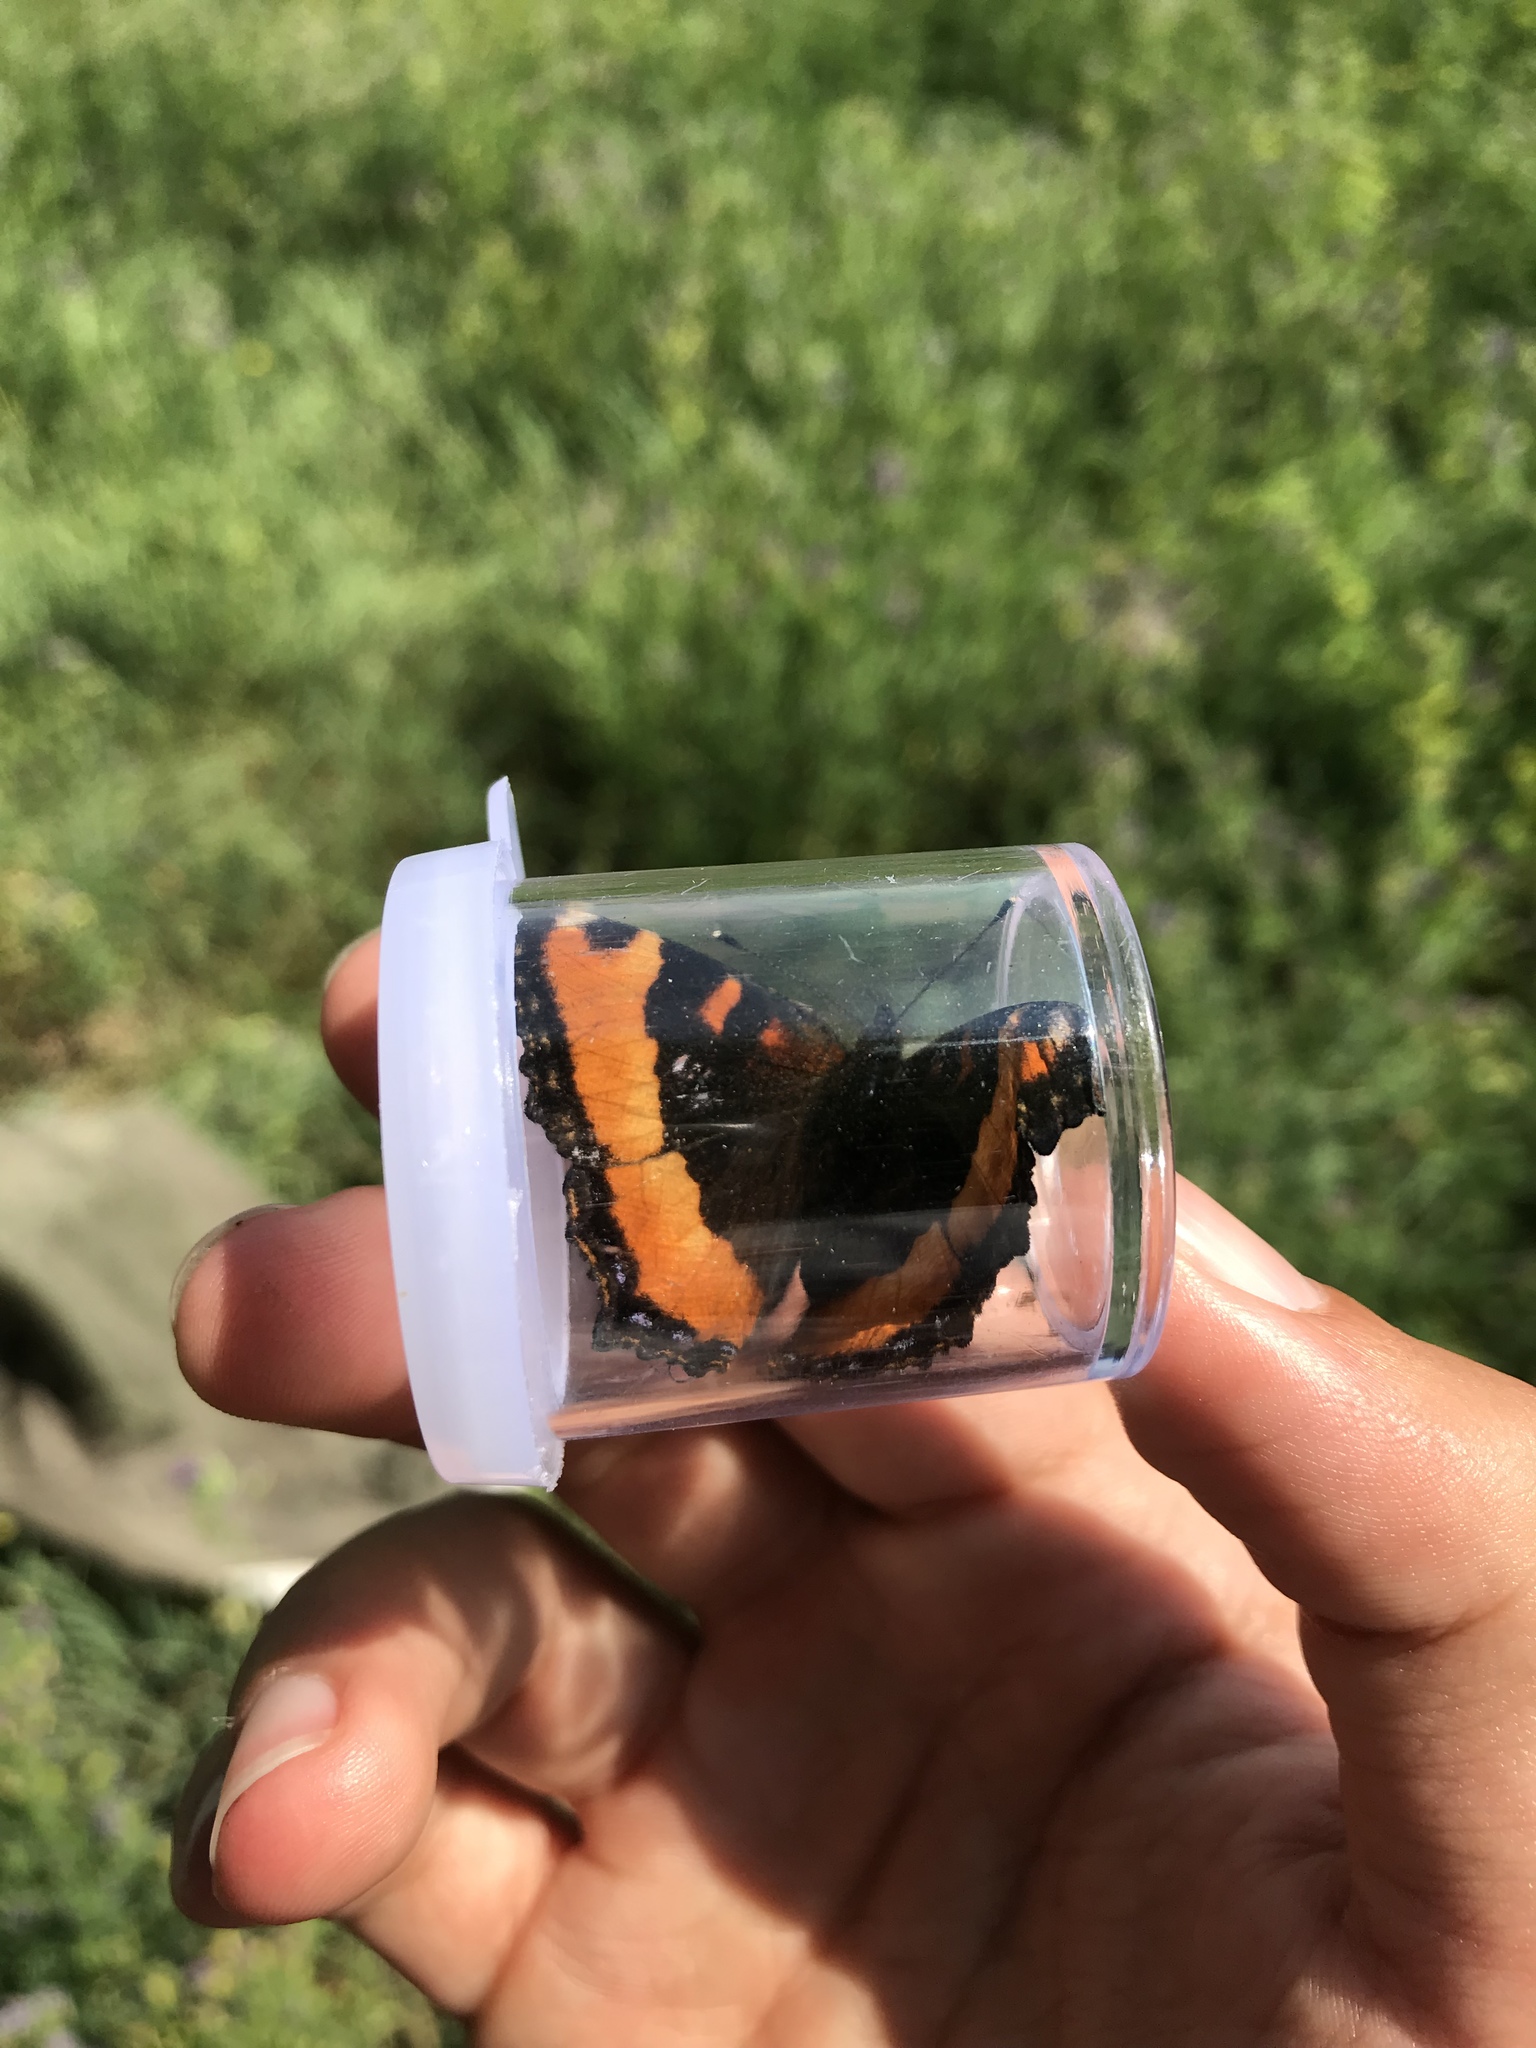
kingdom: Animalia
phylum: Arthropoda
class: Insecta
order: Lepidoptera
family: Nymphalidae
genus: Aglais
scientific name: Aglais milberti
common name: Milbert's tortoiseshell
